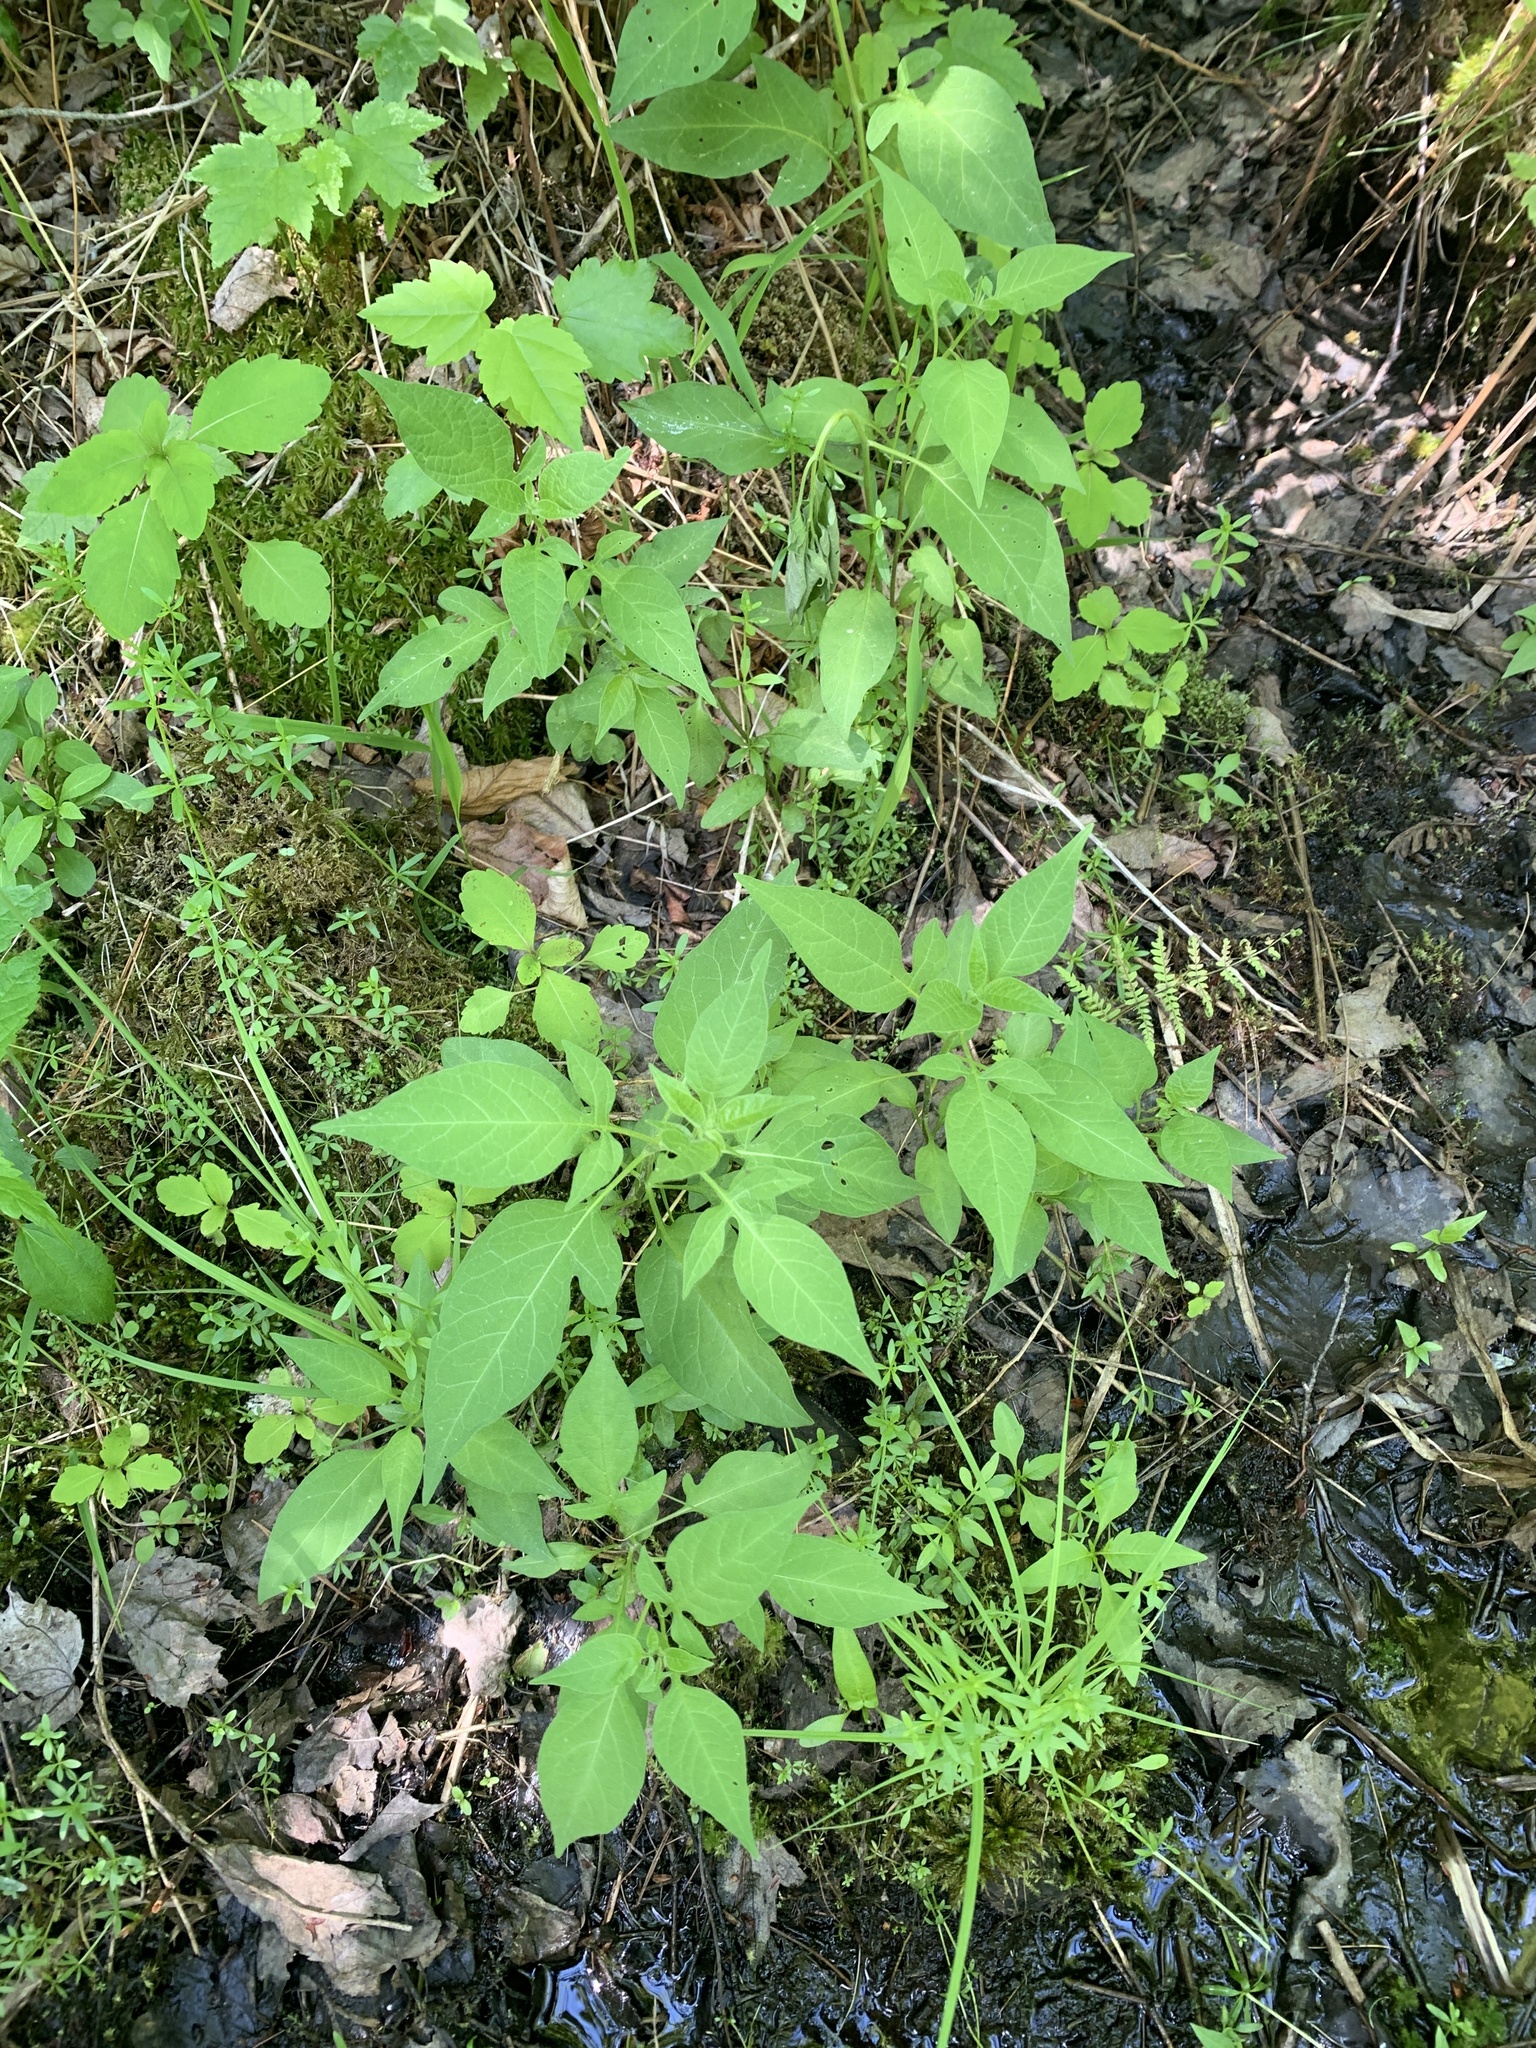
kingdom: Plantae
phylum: Tracheophyta
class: Magnoliopsida
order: Solanales
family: Solanaceae
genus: Solanum
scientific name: Solanum dulcamara
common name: Climbing nightshade
